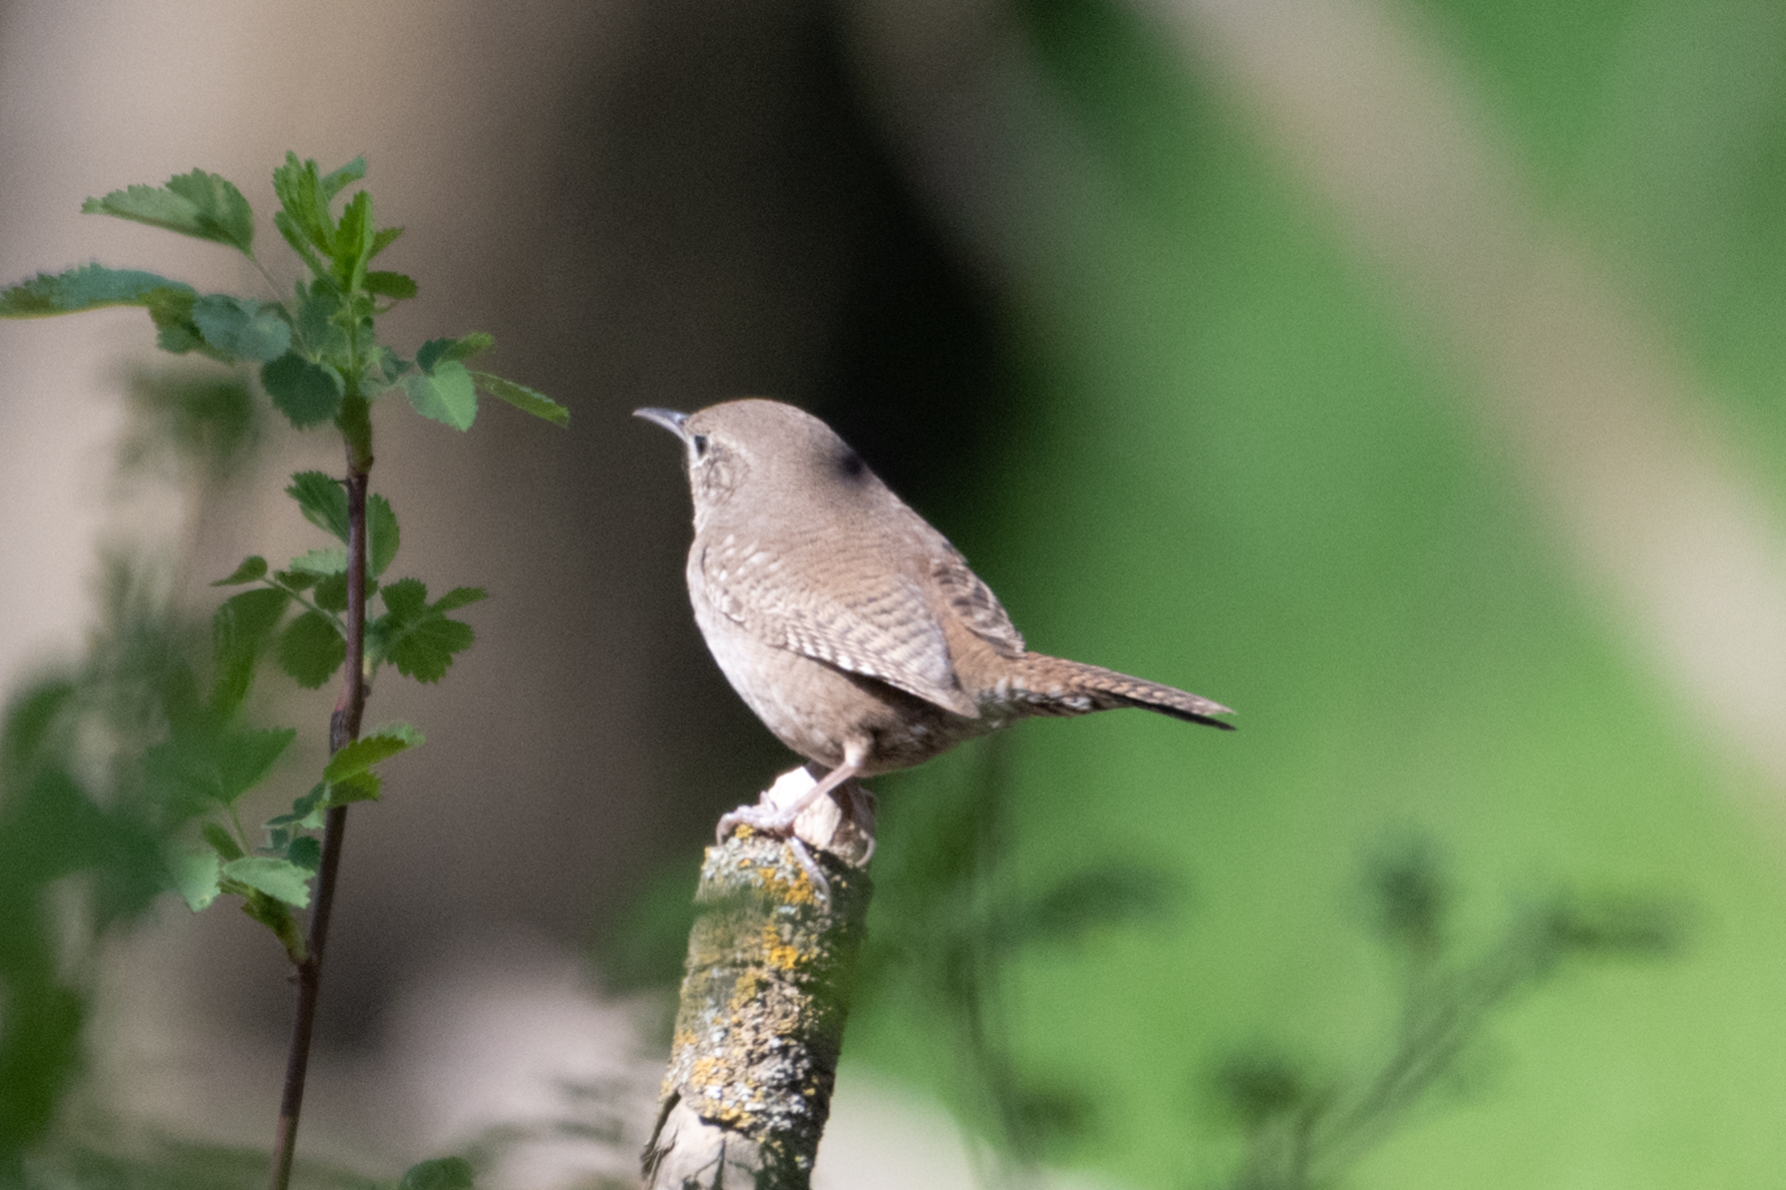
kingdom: Animalia
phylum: Chordata
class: Aves
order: Passeriformes
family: Troglodytidae
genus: Troglodytes
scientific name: Troglodytes aedon
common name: House wren
